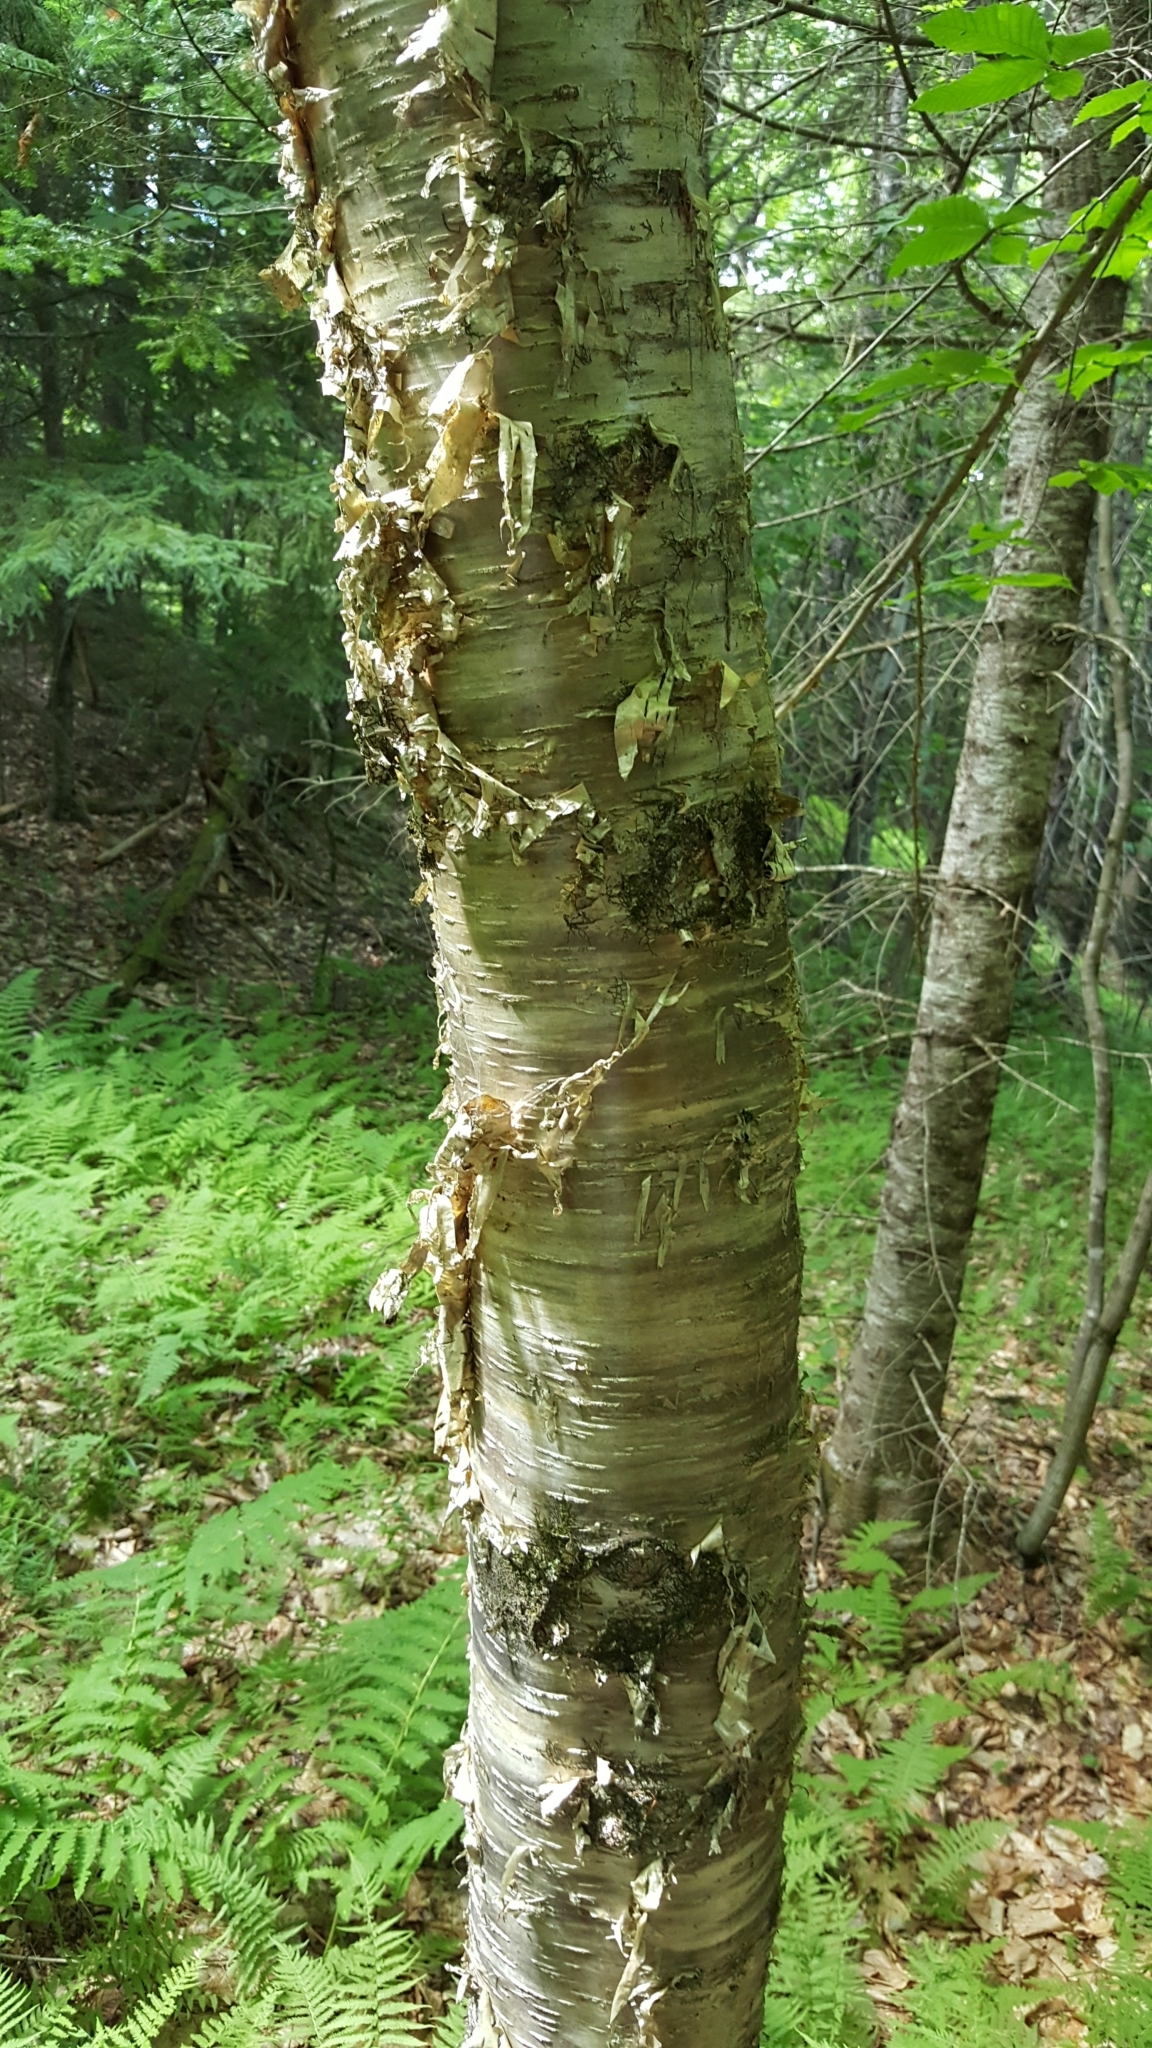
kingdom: Plantae
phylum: Tracheophyta
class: Magnoliopsida
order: Fagales
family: Betulaceae
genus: Betula
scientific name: Betula alleghaniensis
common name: Yellow birch
